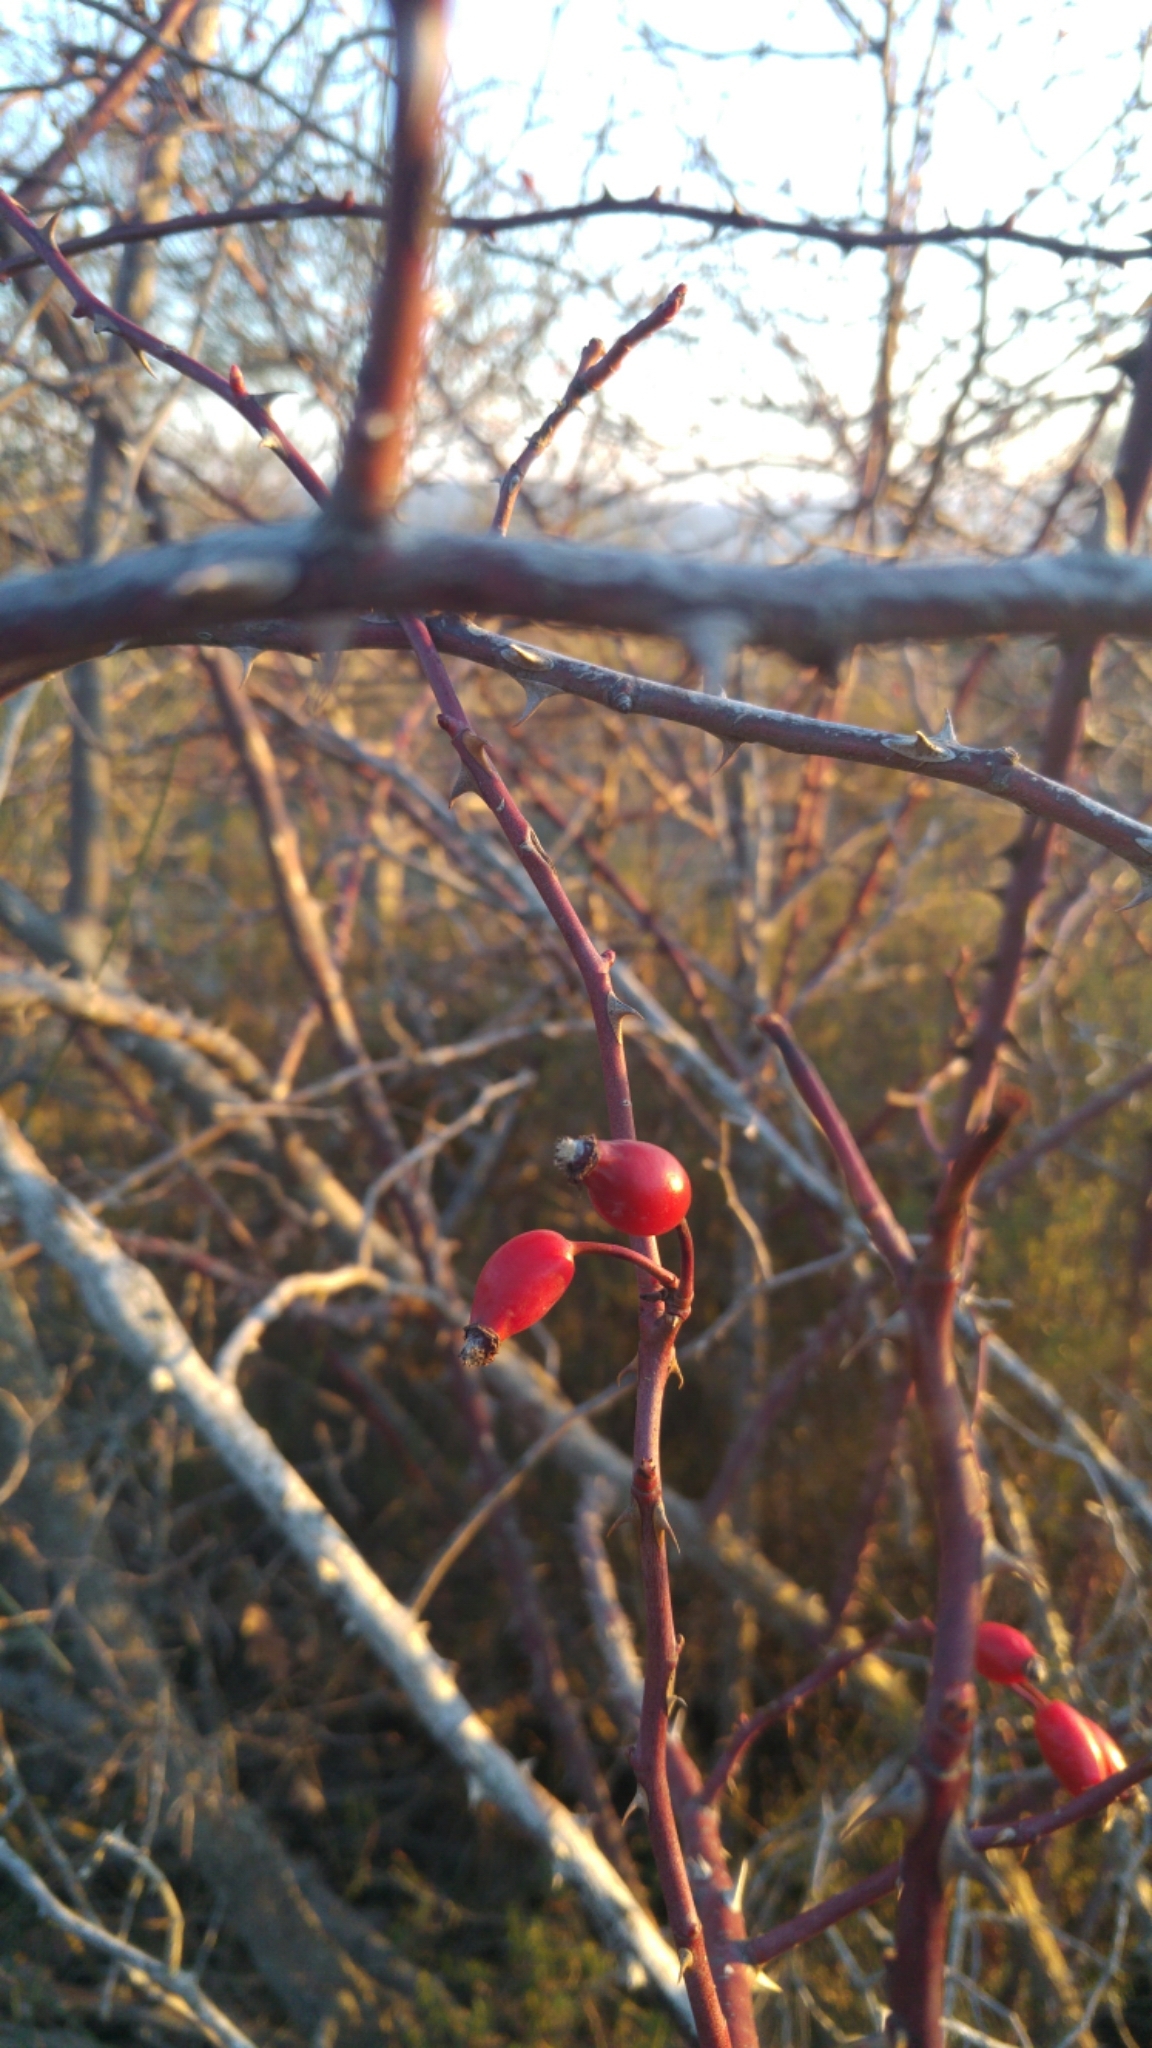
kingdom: Plantae
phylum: Tracheophyta
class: Magnoliopsida
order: Rosales
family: Rosaceae
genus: Rosa
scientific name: Rosa canina
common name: Dog rose
